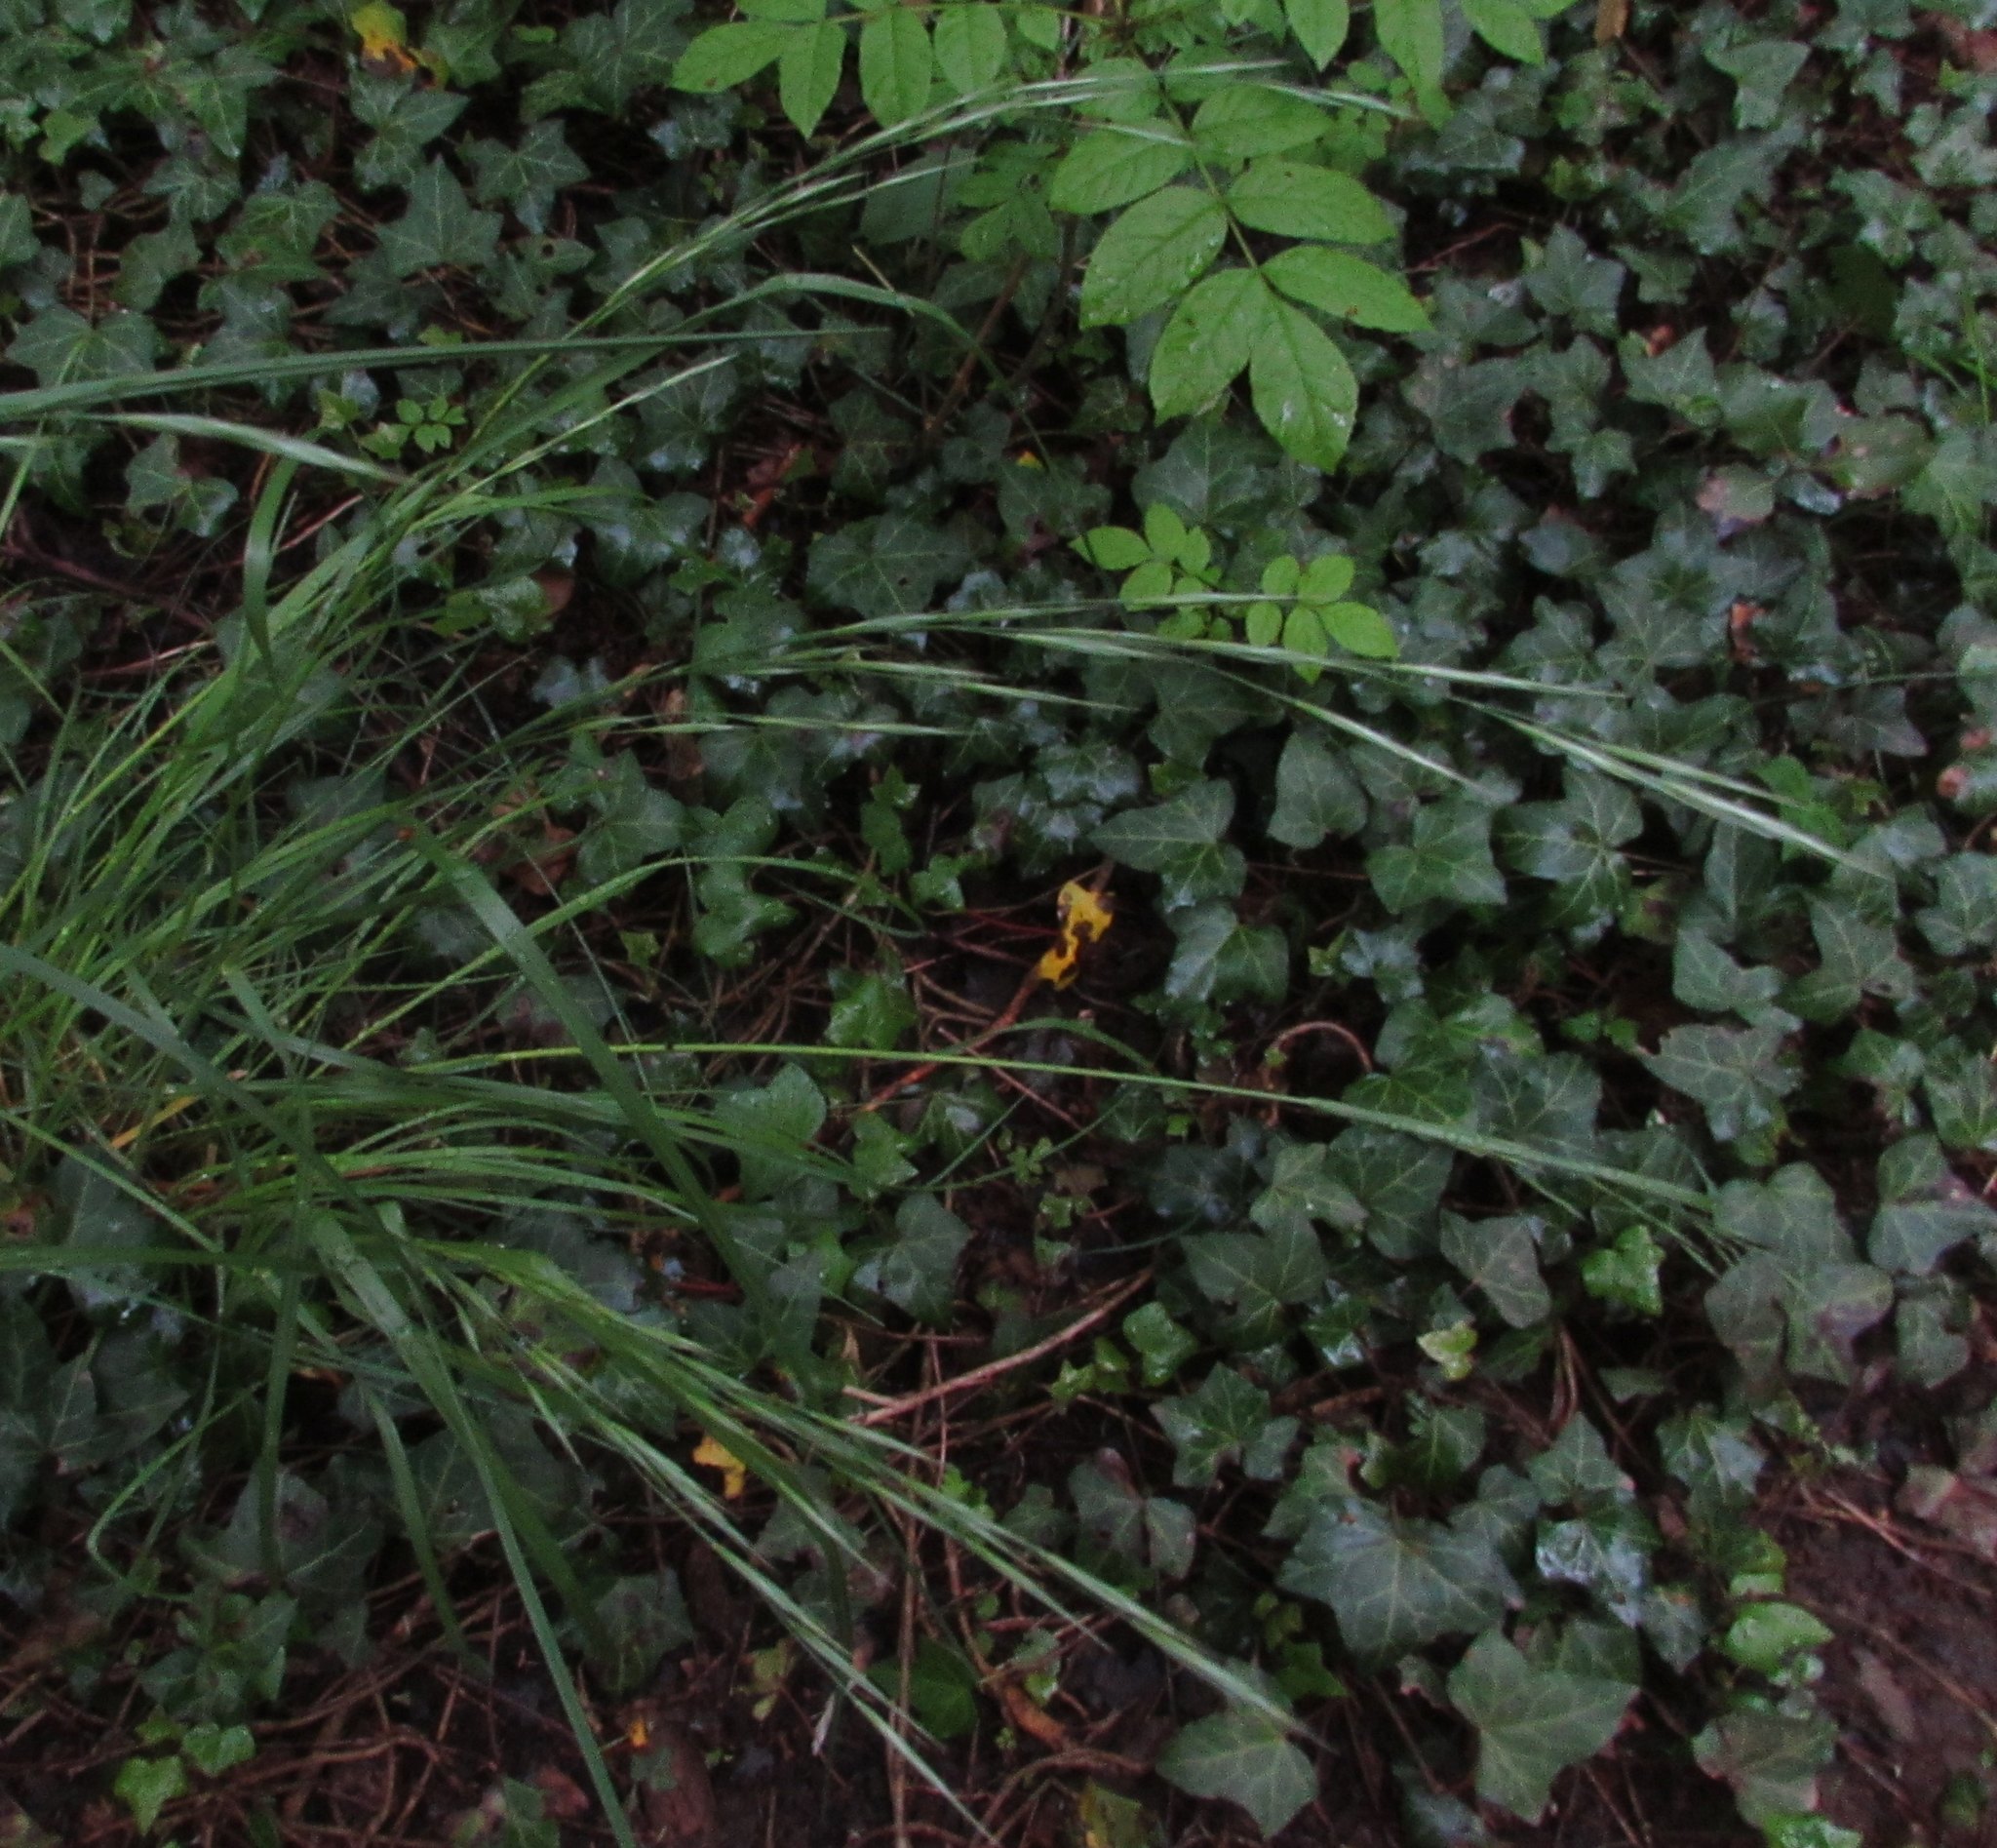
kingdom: Plantae
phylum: Tracheophyta
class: Liliopsida
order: Poales
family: Poaceae
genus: Brachypodium
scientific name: Brachypodium sylvaticum
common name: False-brome
